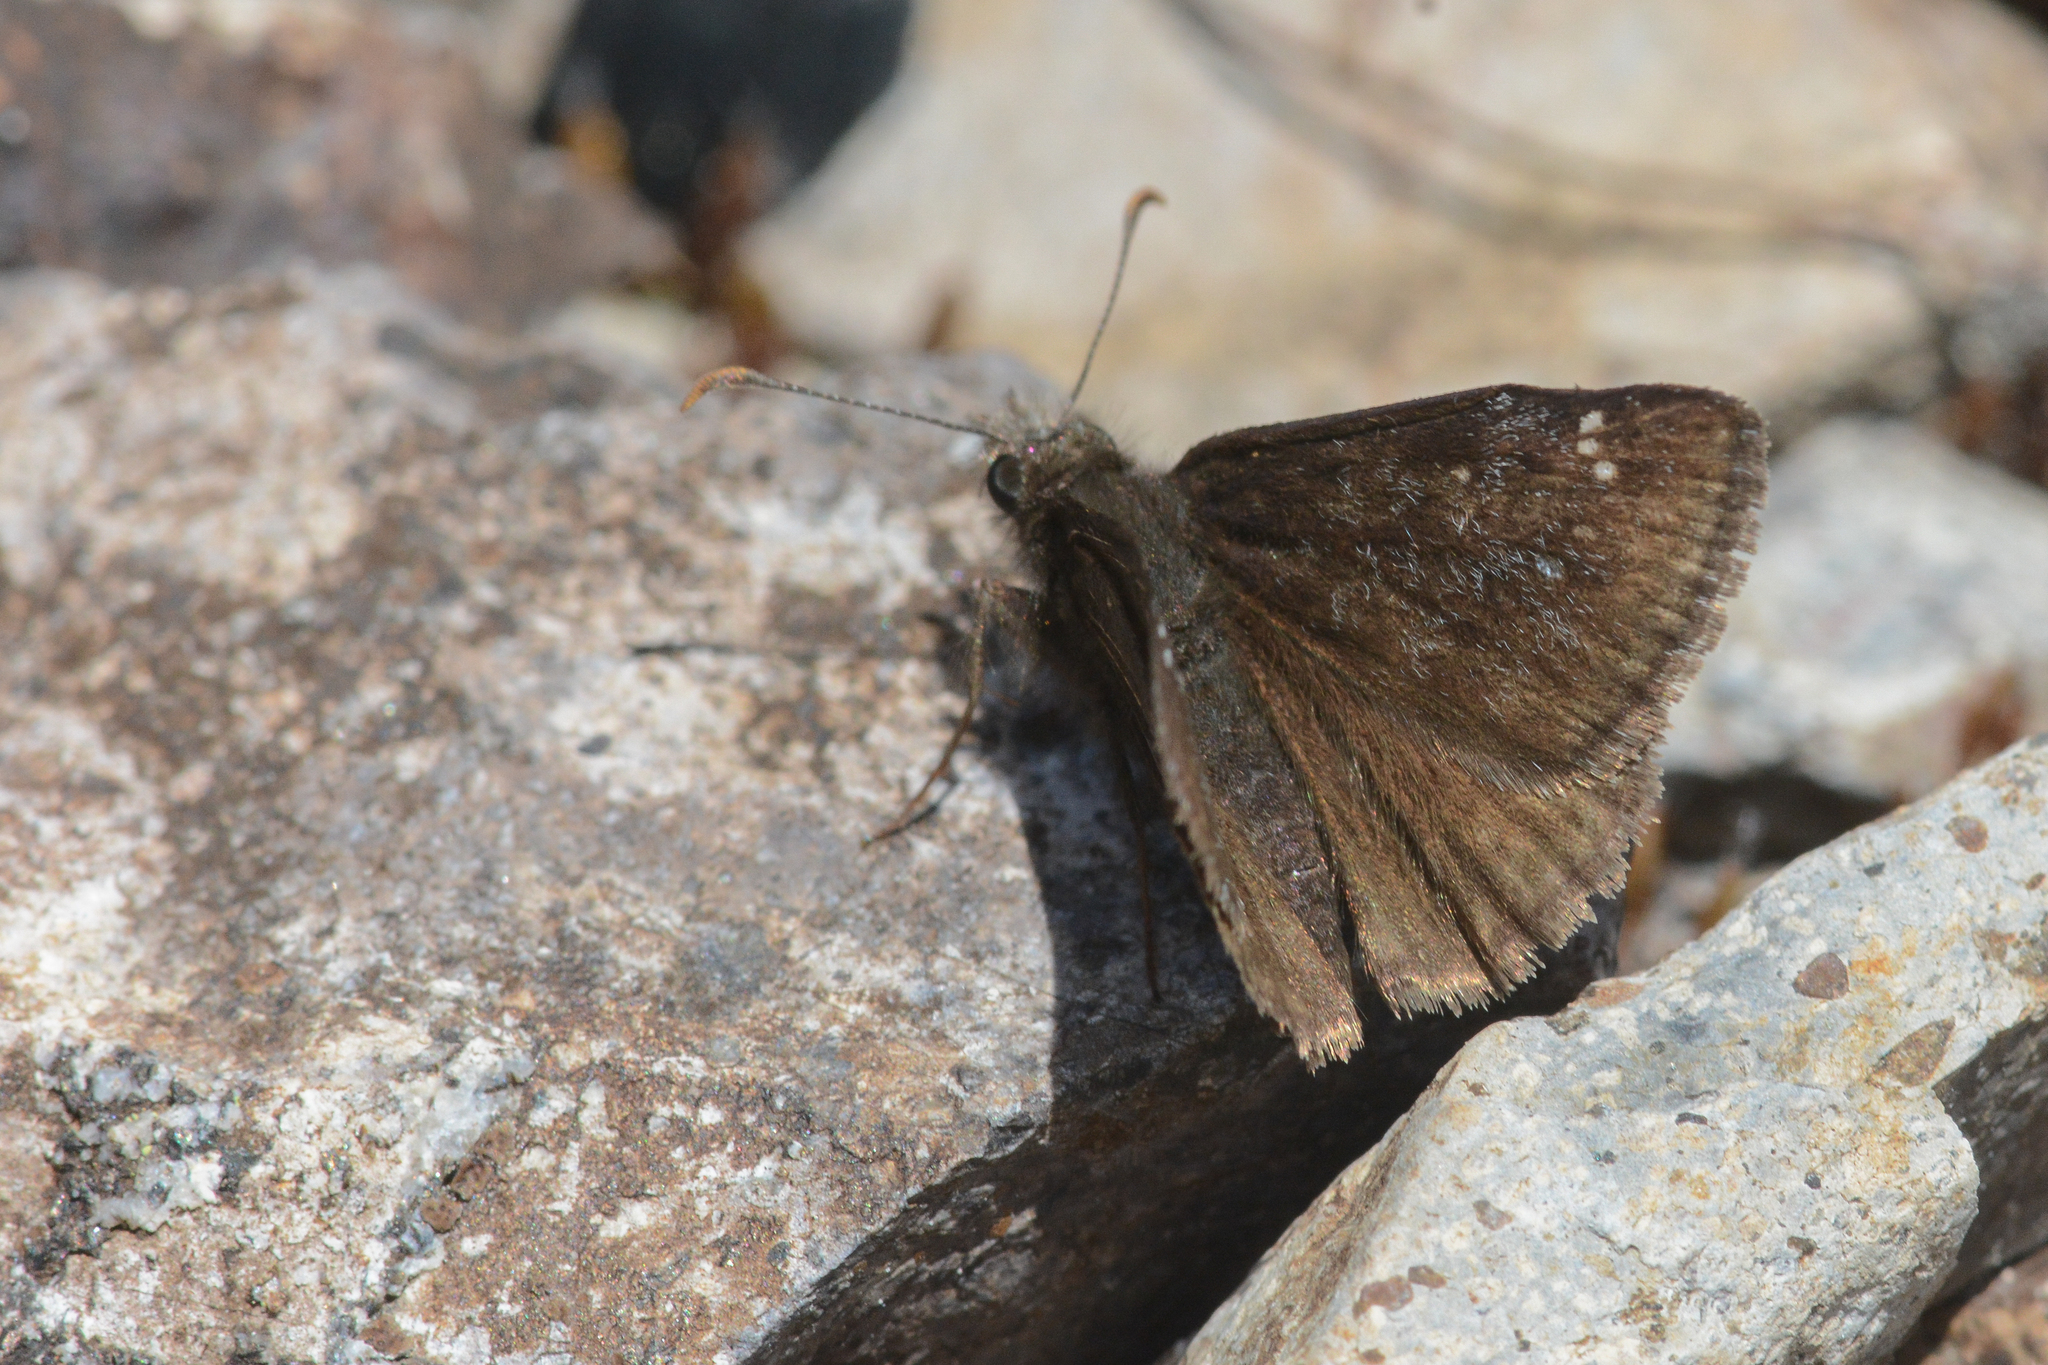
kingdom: Animalia
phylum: Arthropoda
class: Insecta
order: Lepidoptera
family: Hesperiidae
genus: Erynnis
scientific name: Erynnis persius
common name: Persius duskywing
